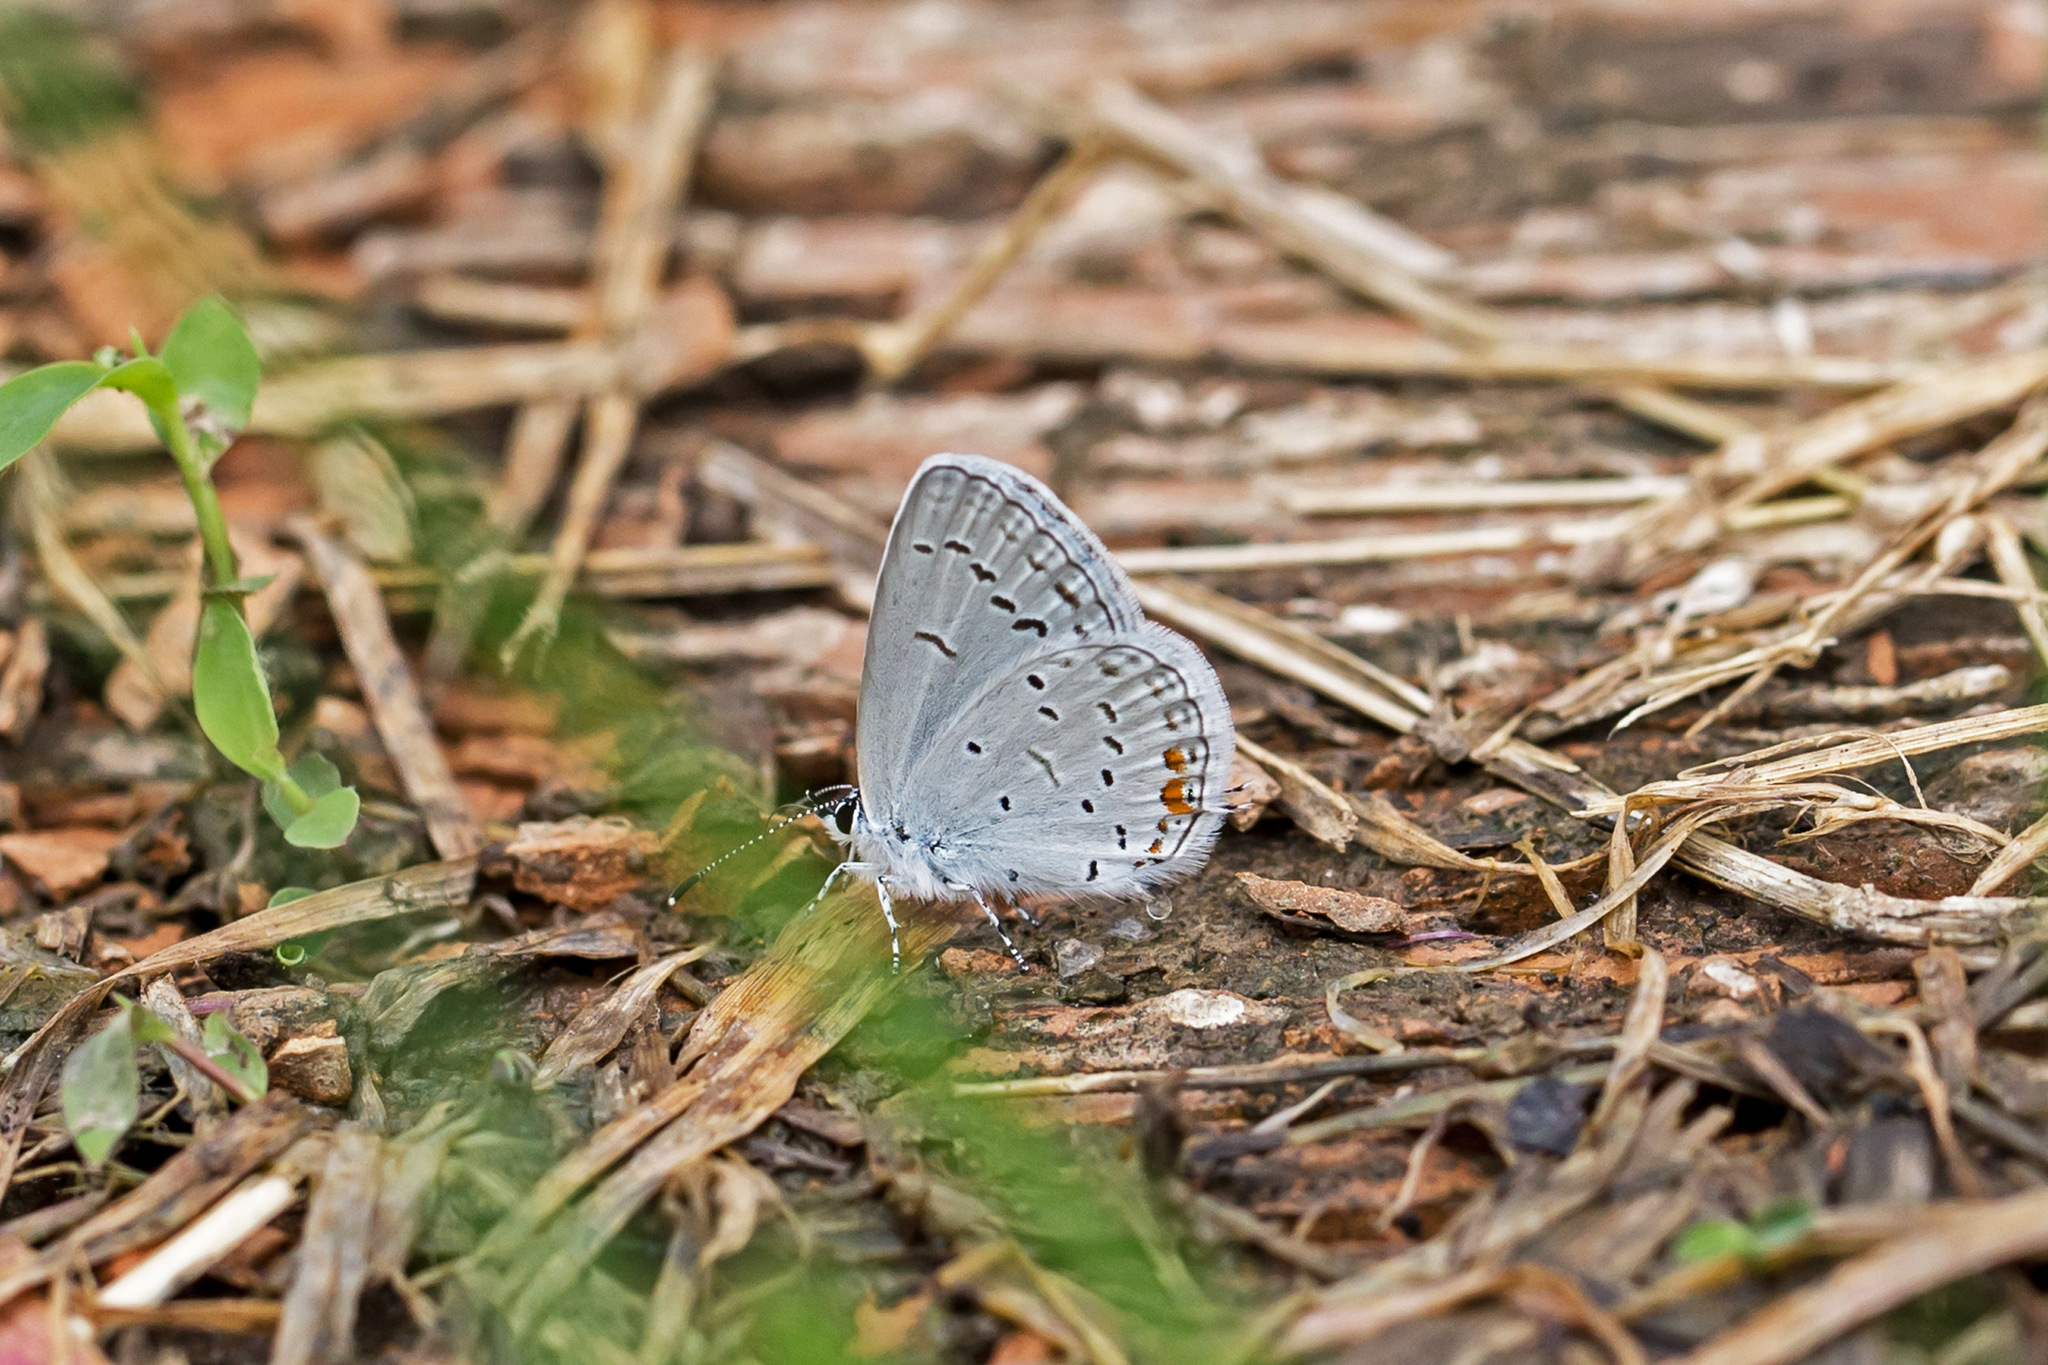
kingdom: Animalia
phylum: Arthropoda
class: Insecta
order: Lepidoptera
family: Lycaenidae
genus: Elkalyce
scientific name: Elkalyce comyntas
